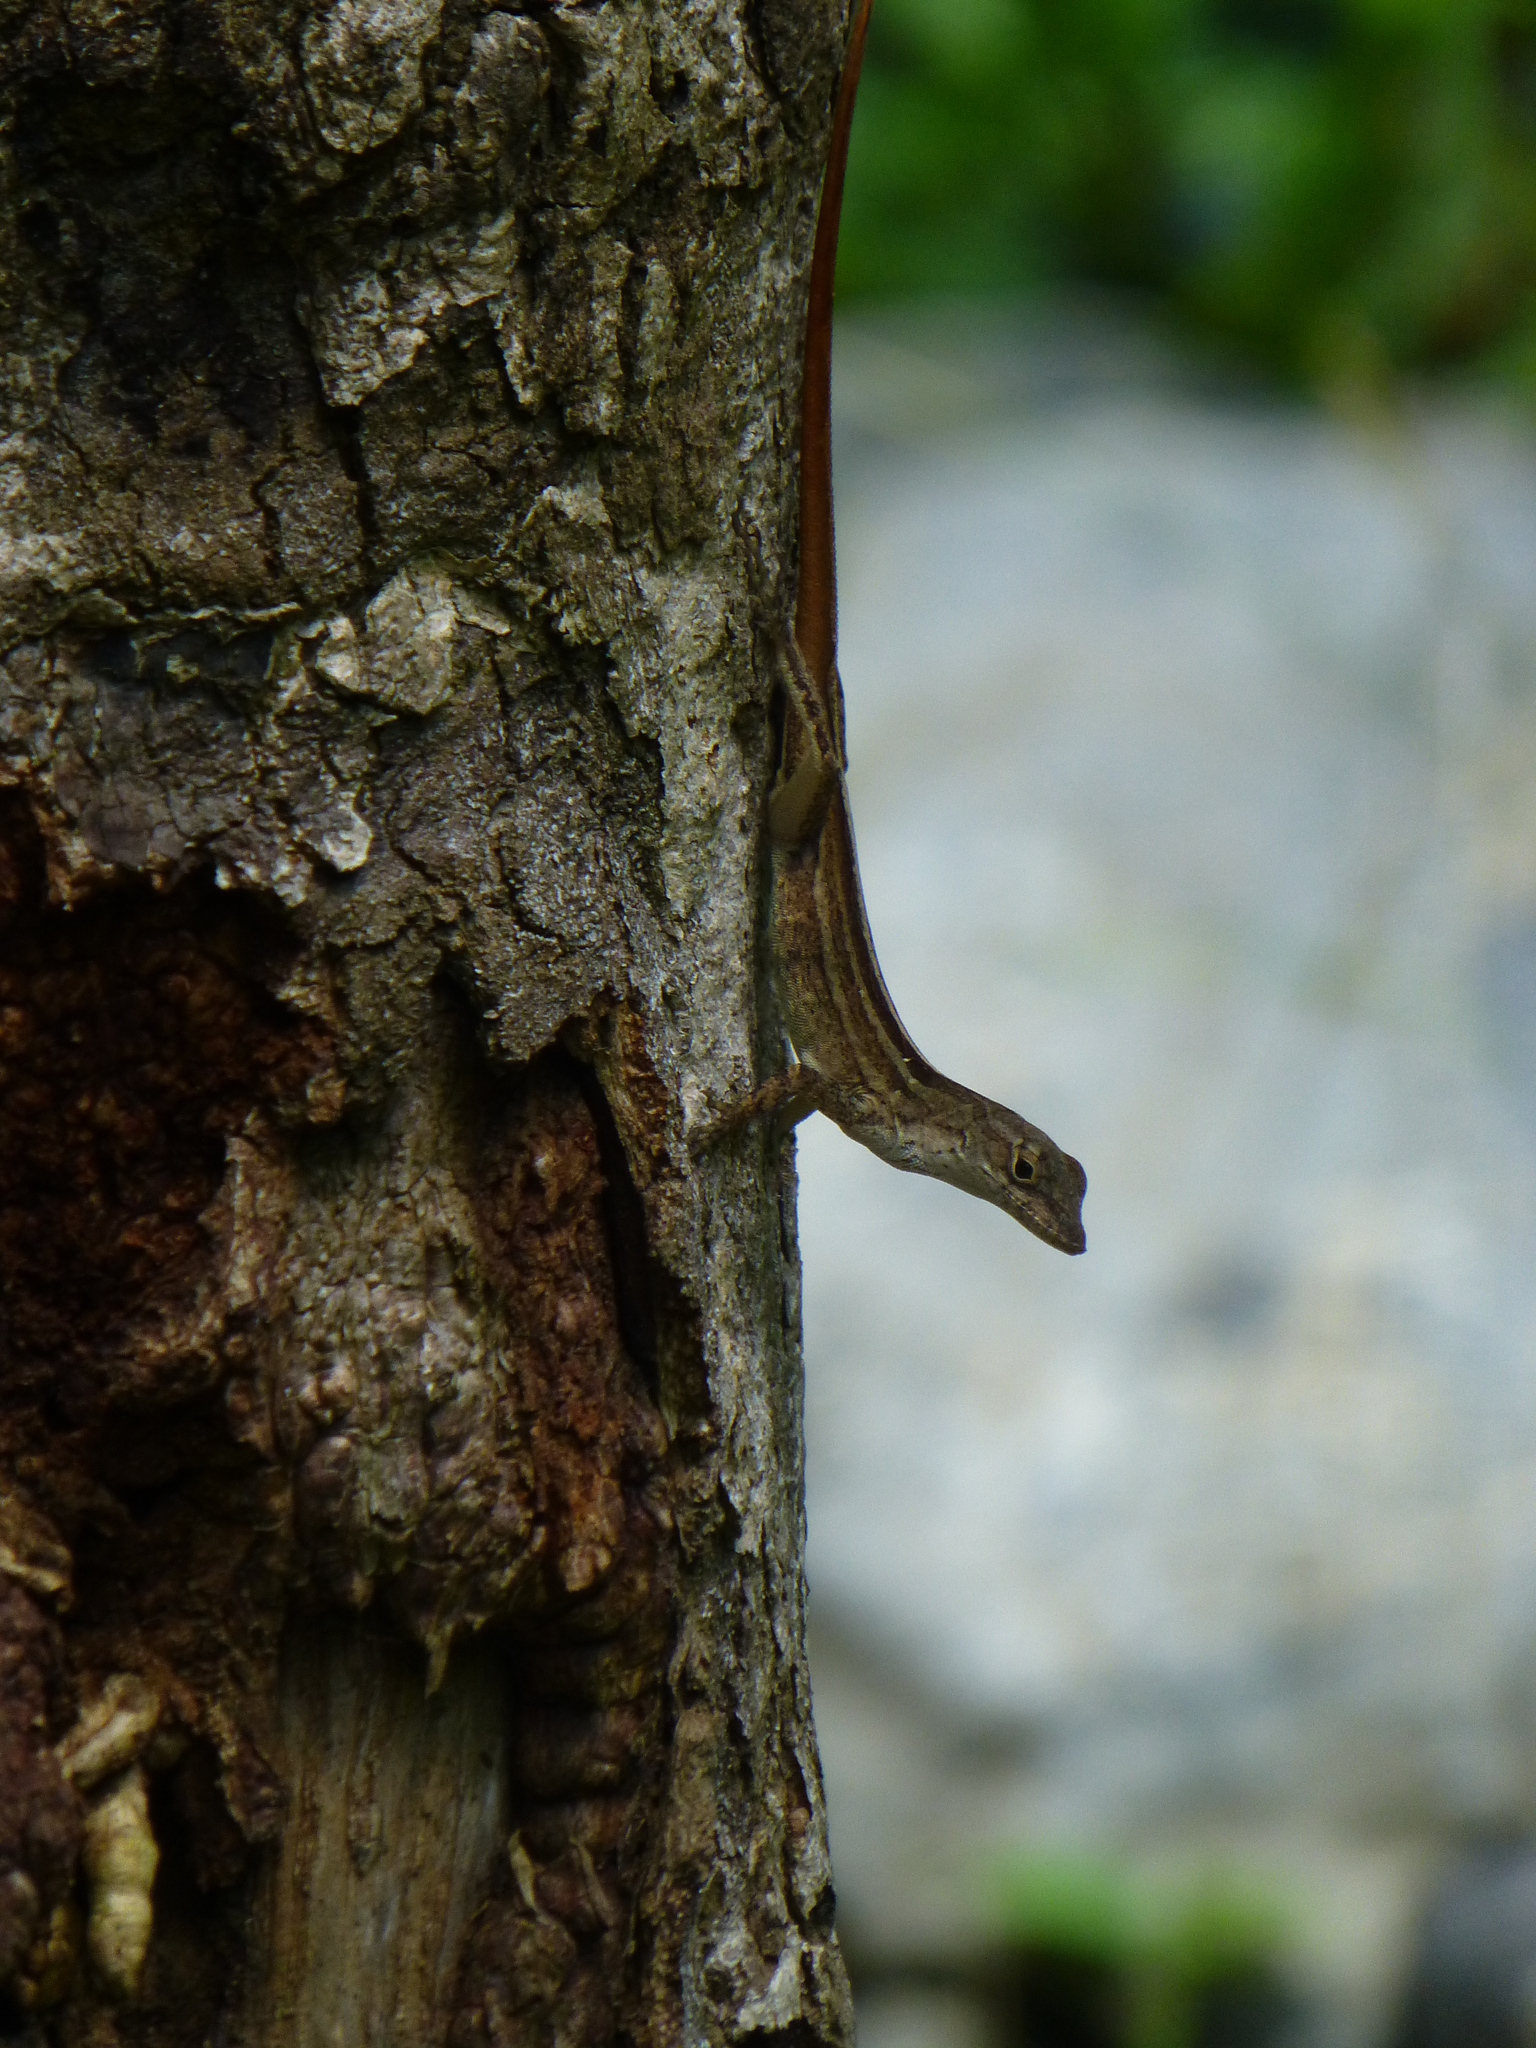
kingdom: Animalia
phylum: Chordata
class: Squamata
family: Dactyloidae
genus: Anolis
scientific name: Anolis sagrei
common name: Brown anole
